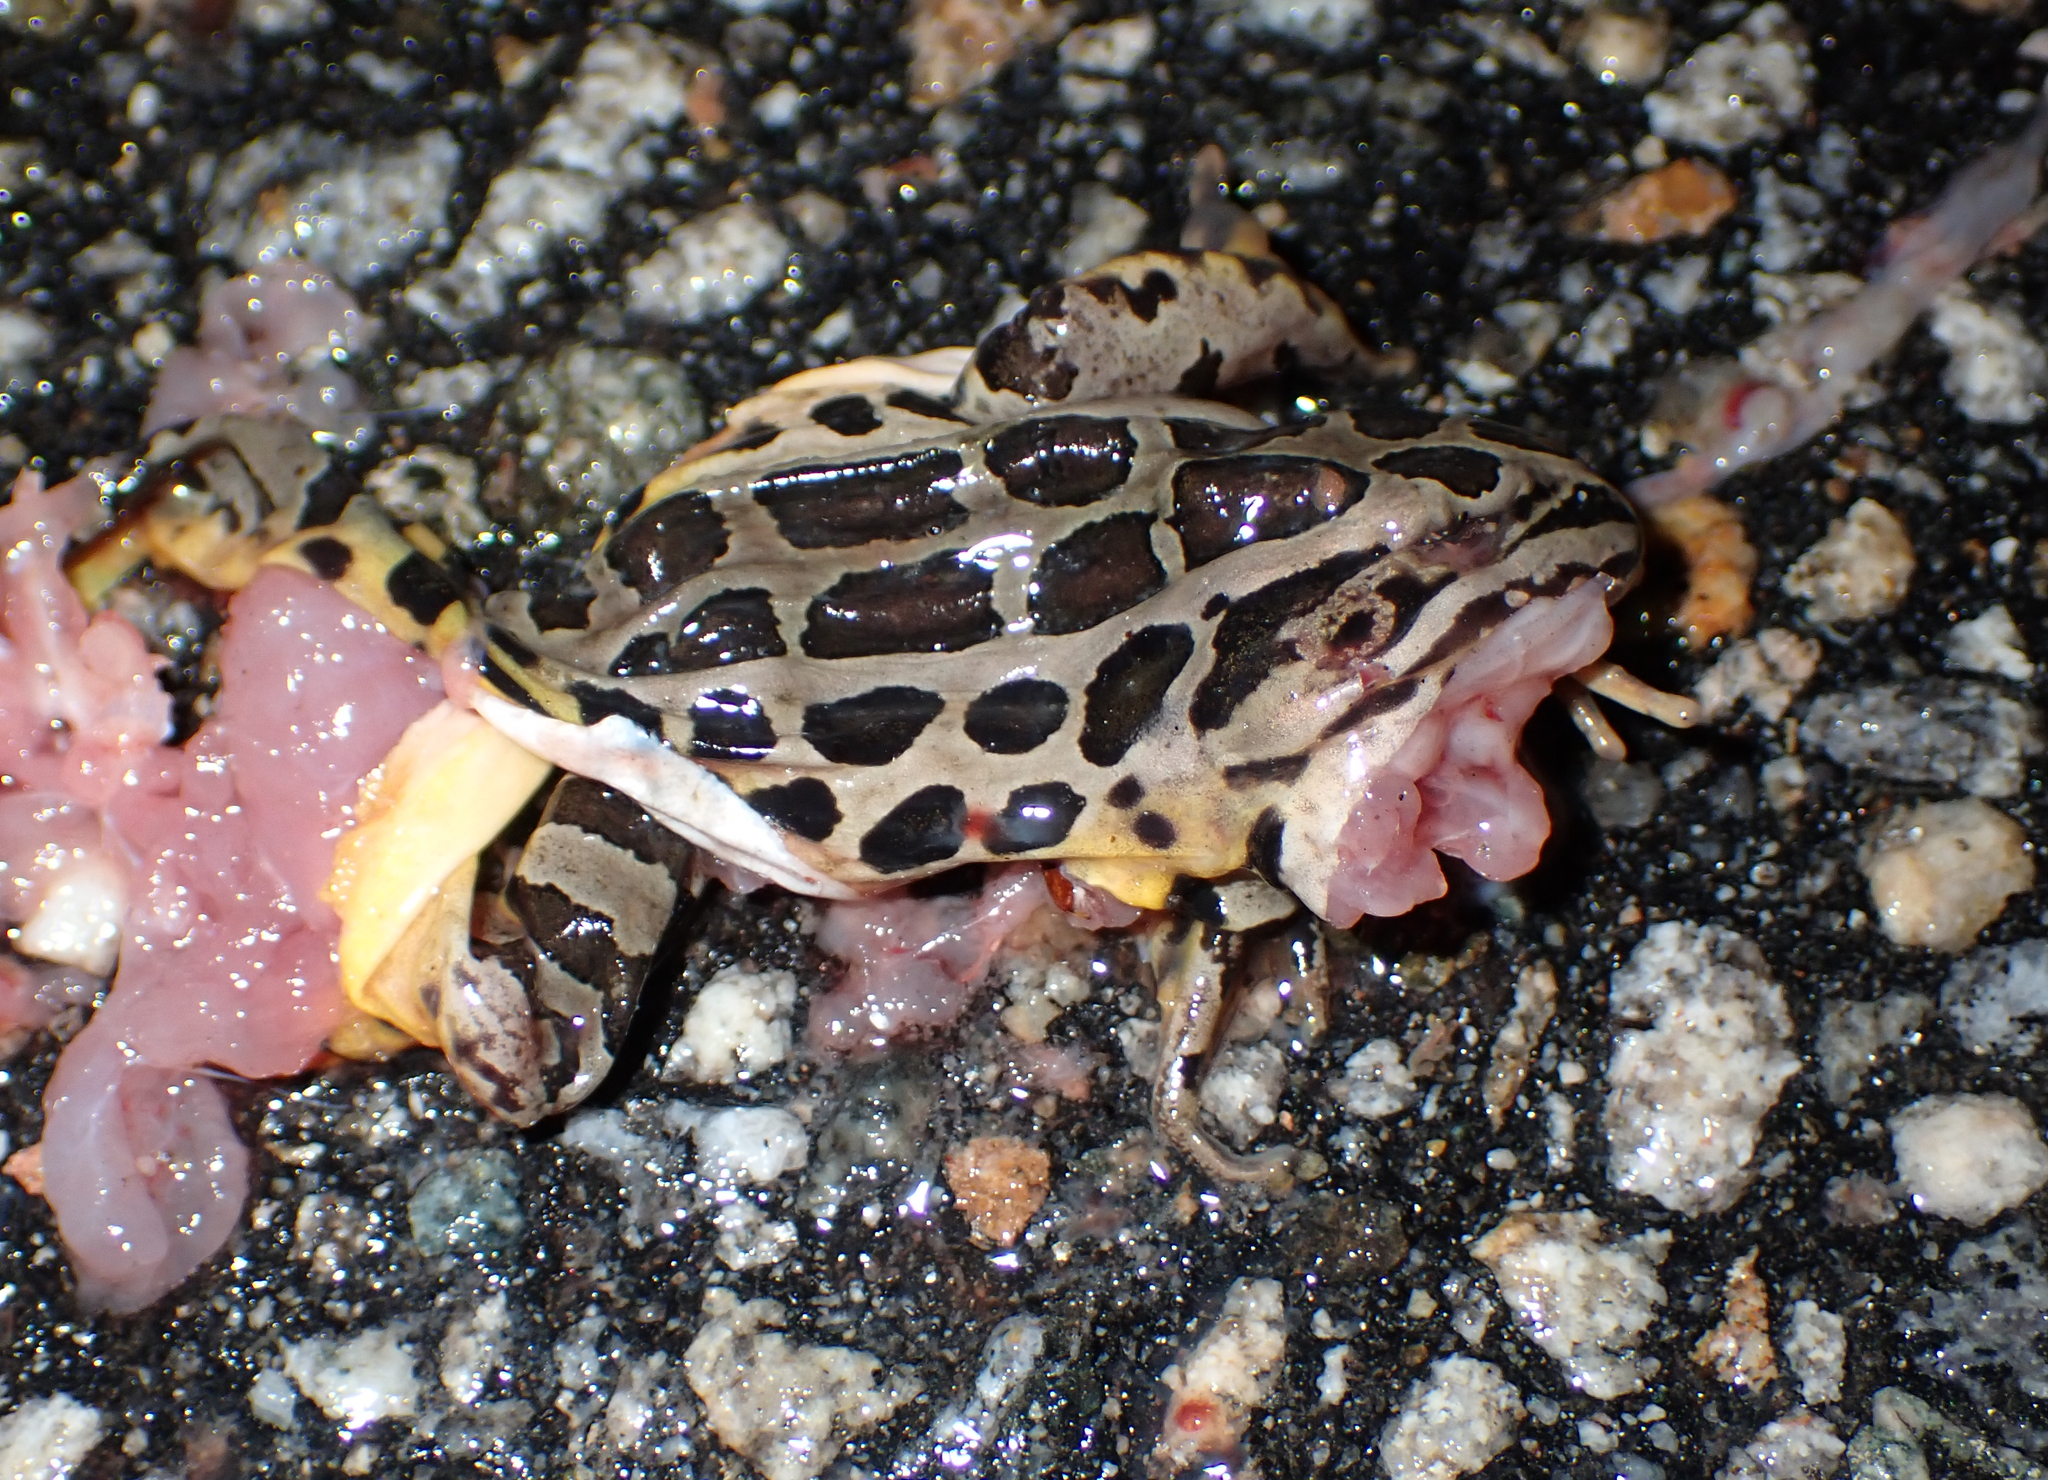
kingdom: Animalia
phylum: Chordata
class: Amphibia
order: Anura
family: Ranidae
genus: Lithobates
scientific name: Lithobates palustris
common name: Pickerel frog
